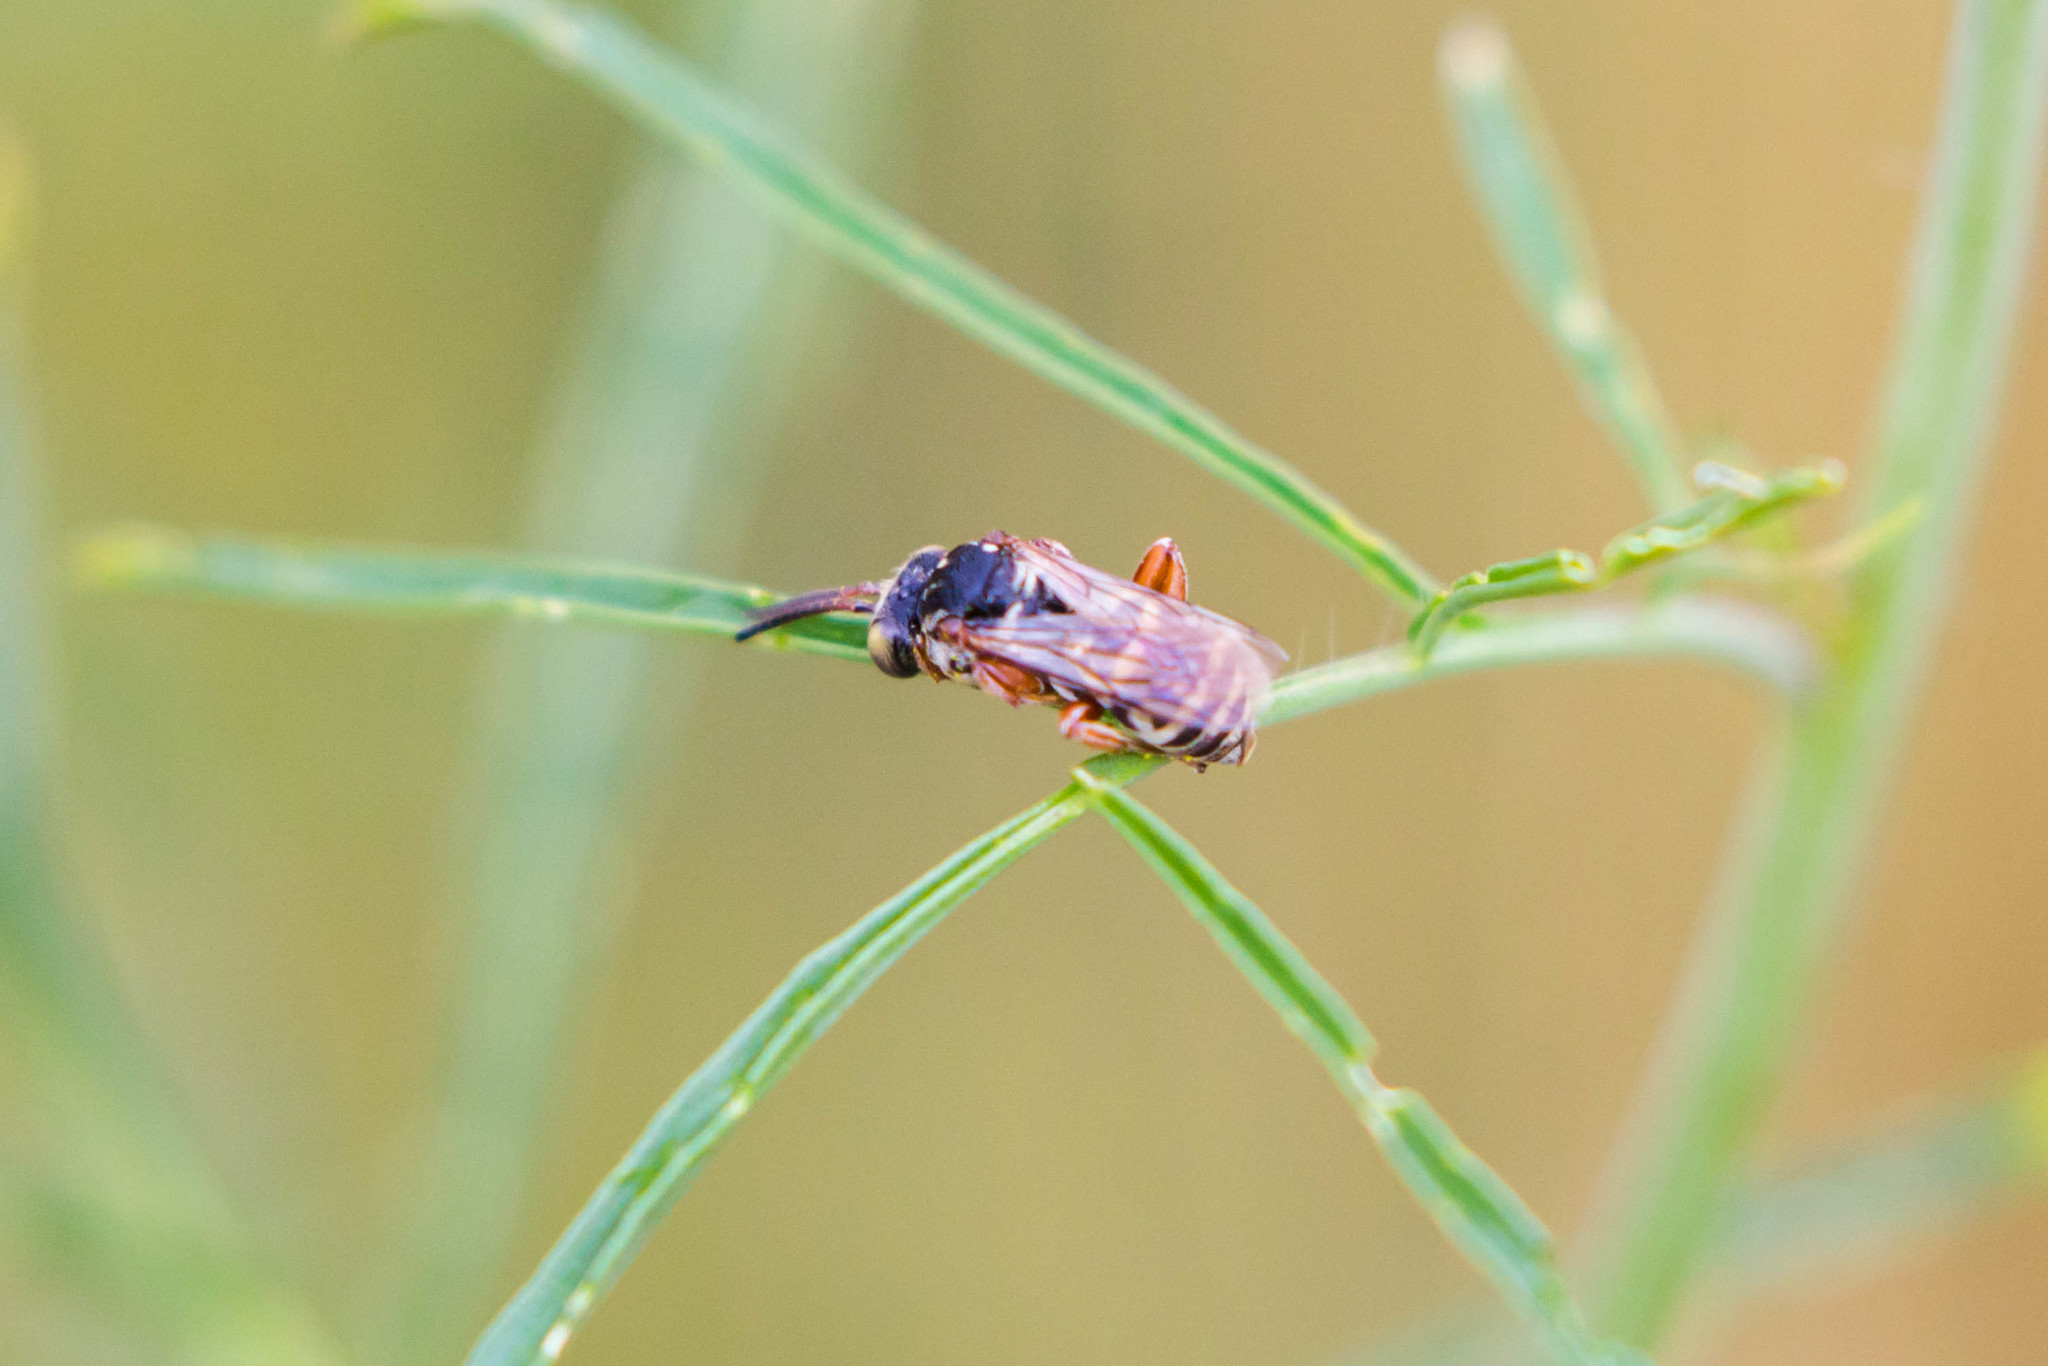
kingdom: Animalia
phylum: Arthropoda
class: Insecta
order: Hymenoptera
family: Apidae
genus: Triepeolus
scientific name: Triepeolus
